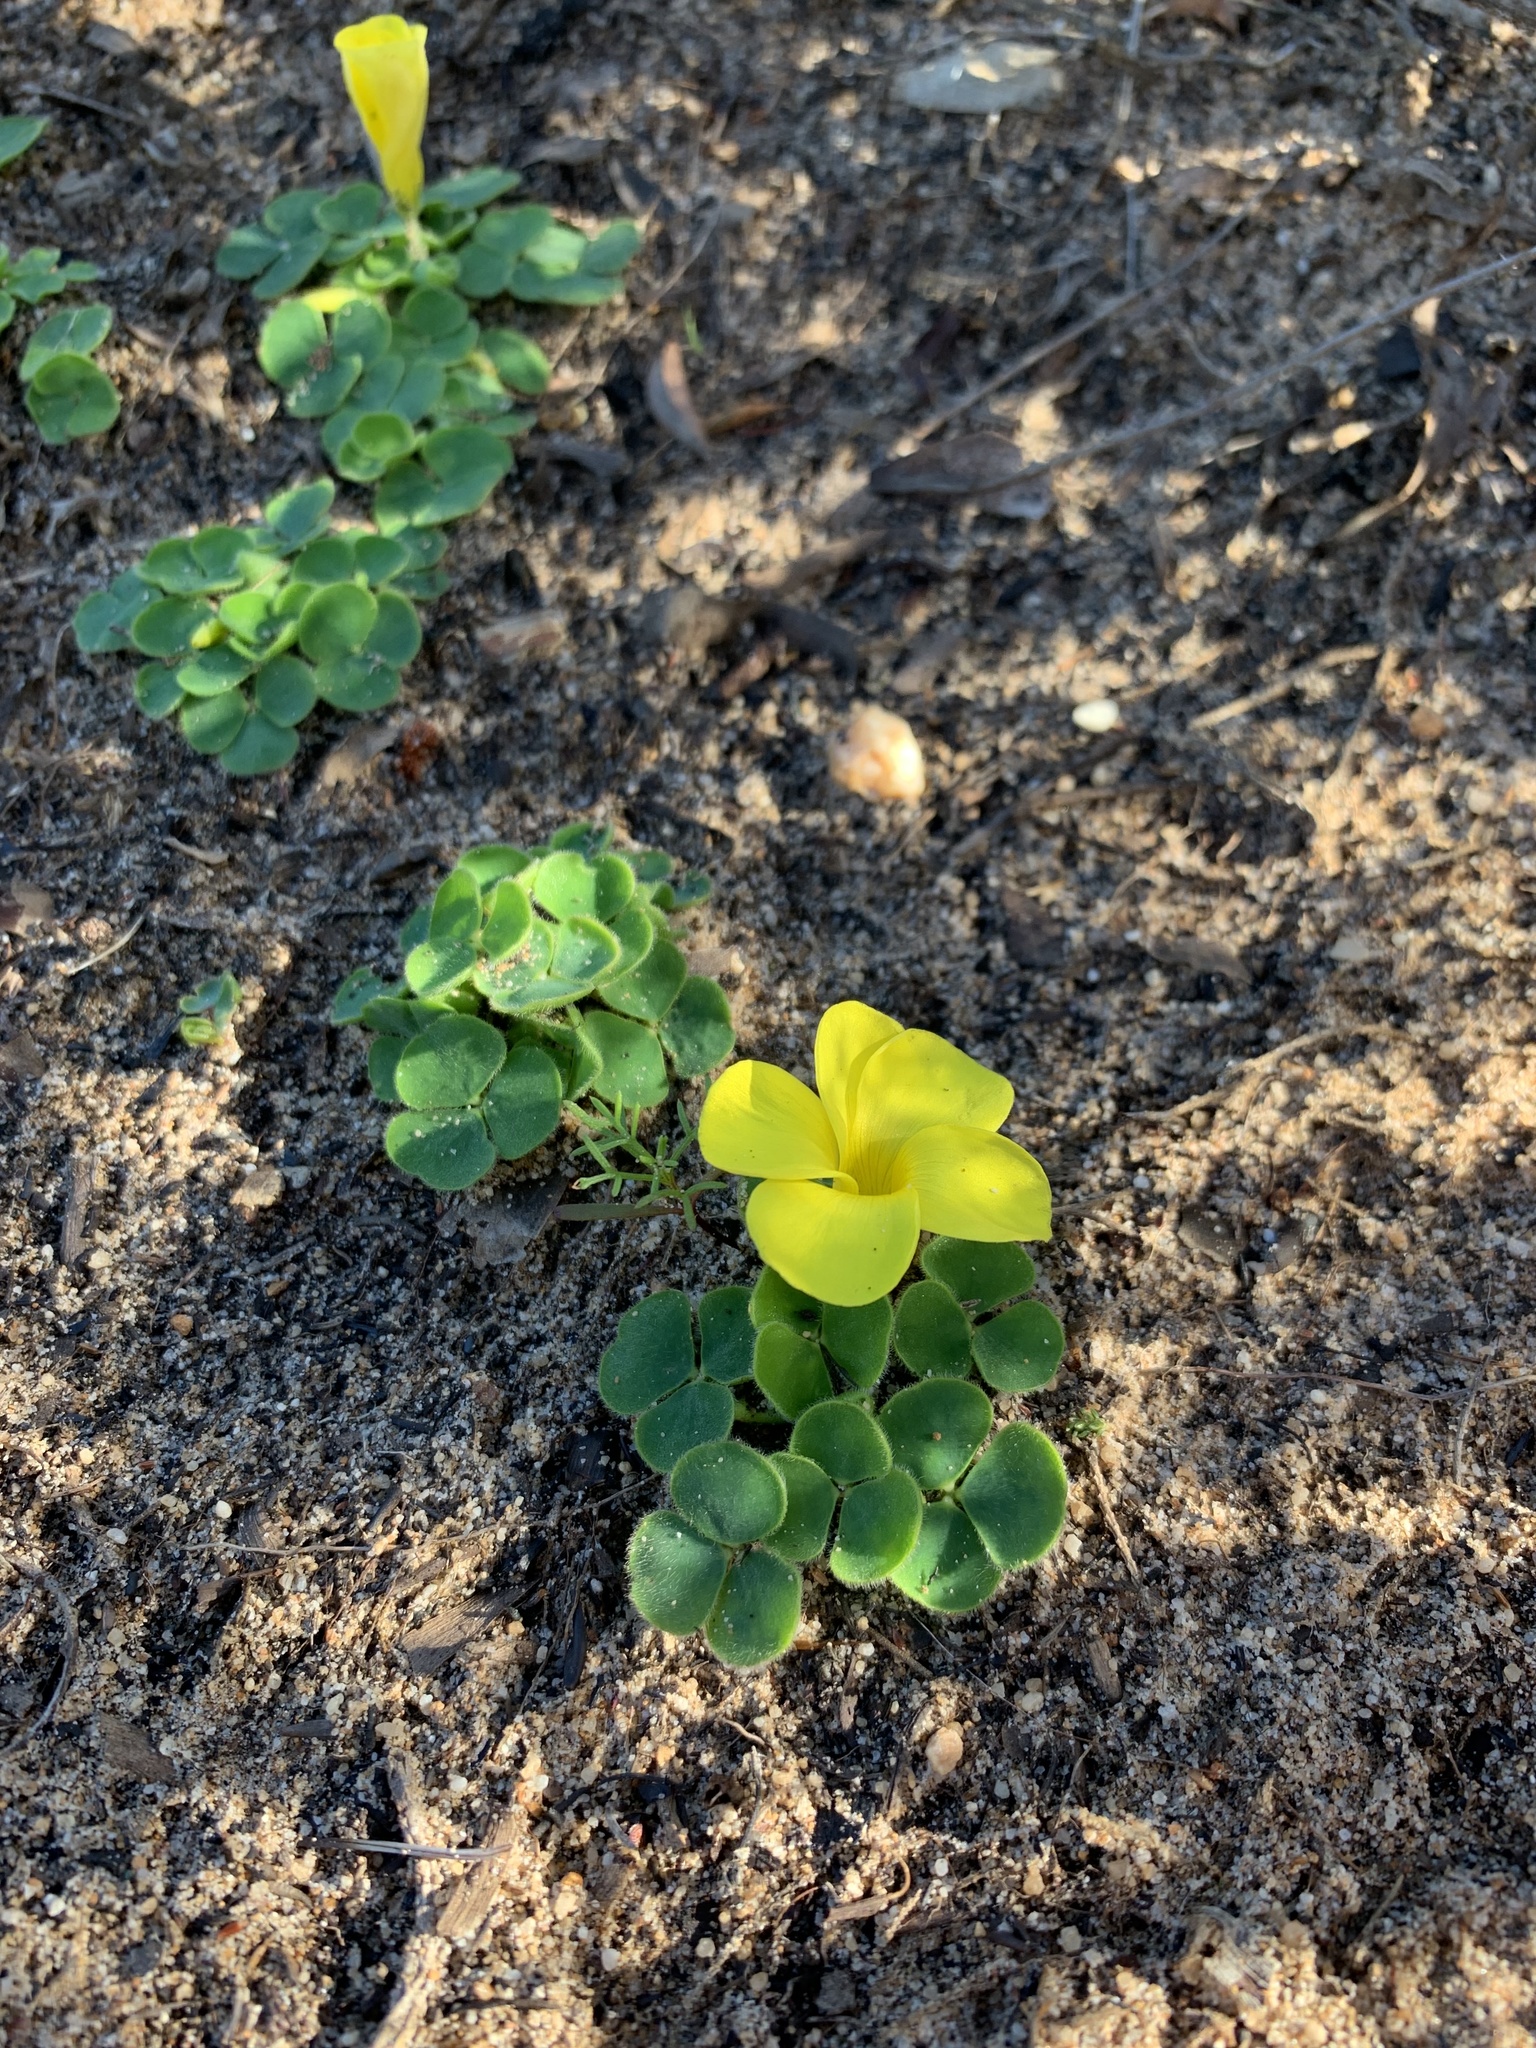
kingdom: Plantae
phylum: Tracheophyta
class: Magnoliopsida
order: Oxalidales
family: Oxalidaceae
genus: Oxalis
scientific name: Oxalis luteola
